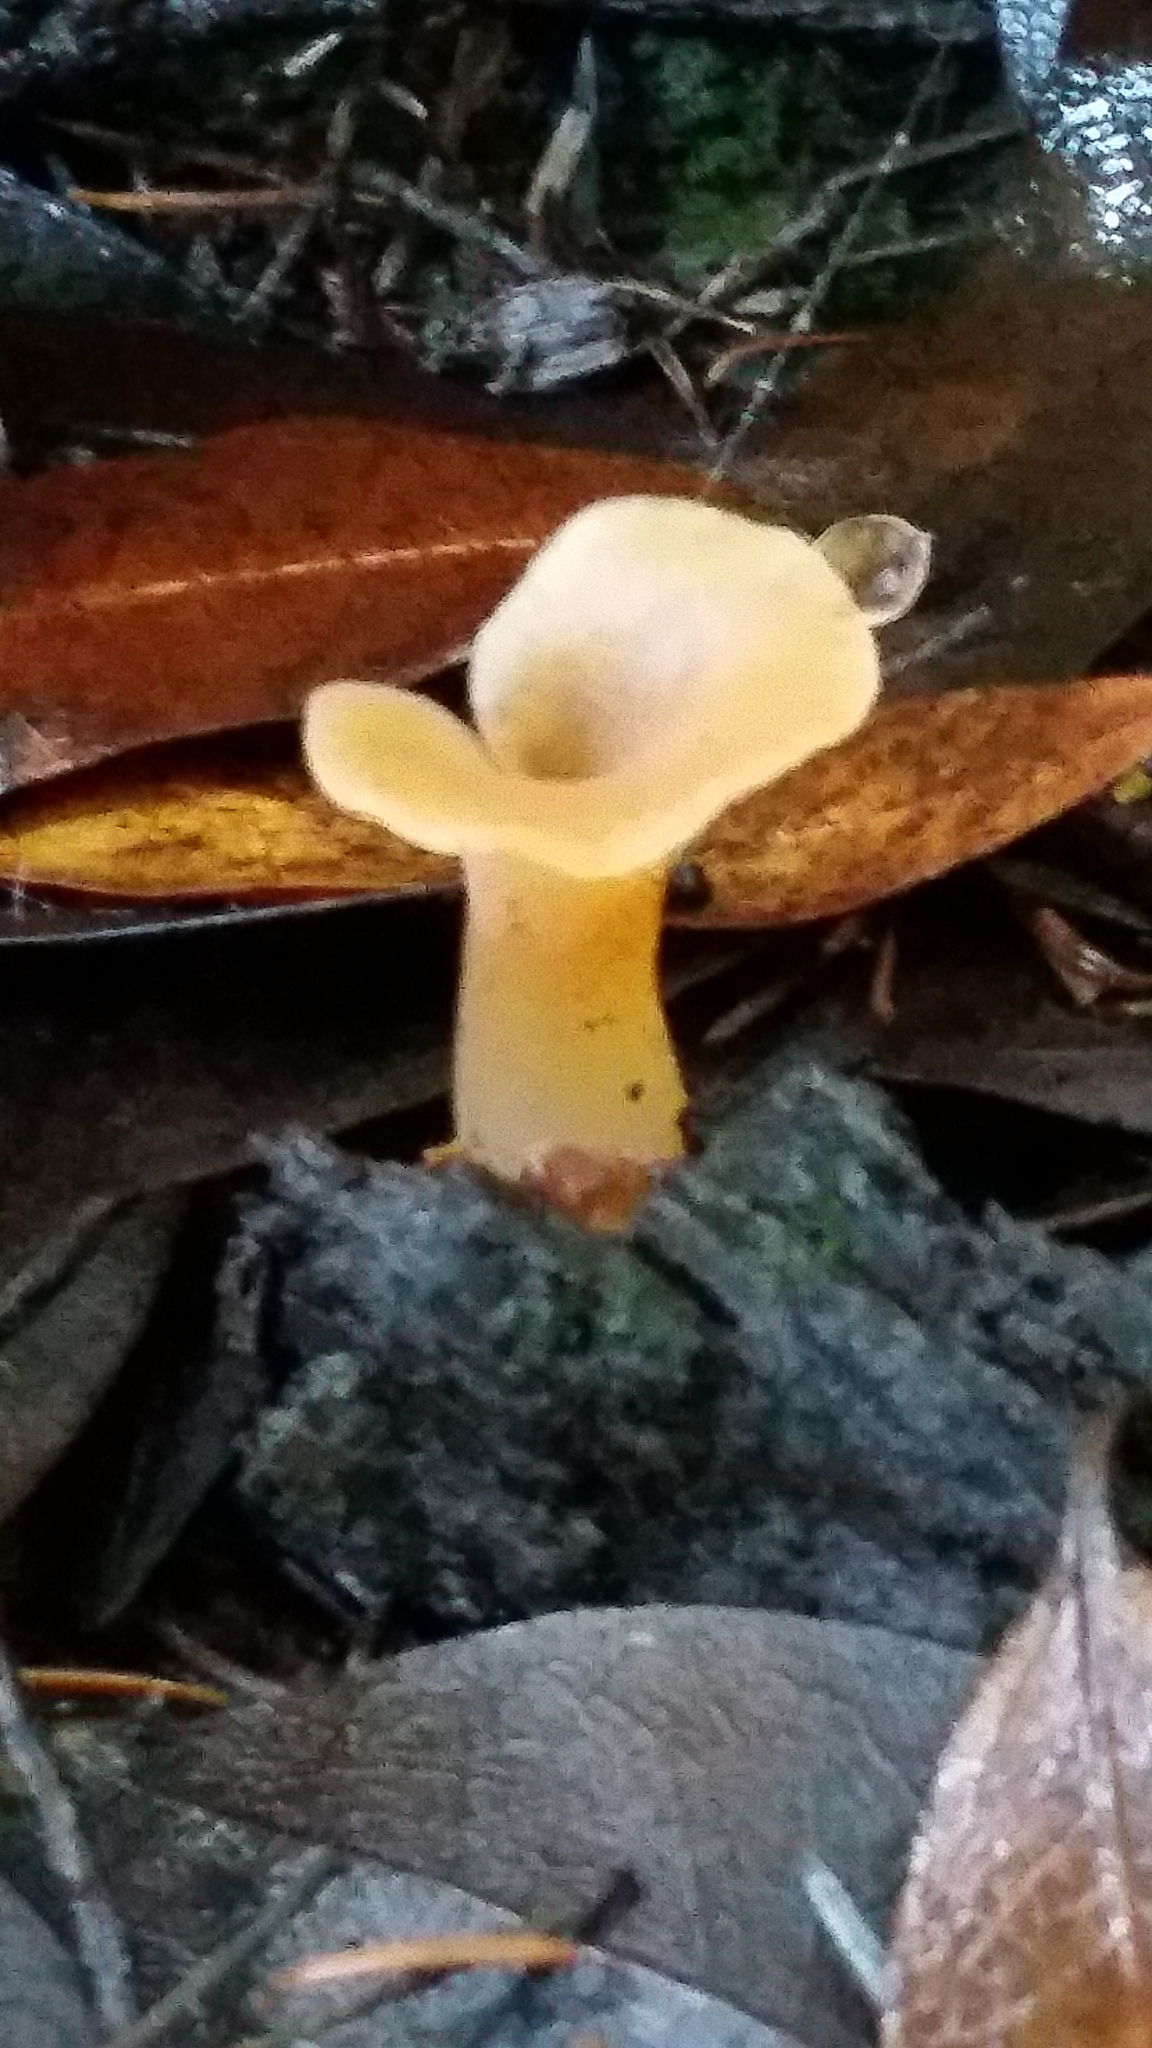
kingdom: Fungi
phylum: Basidiomycota
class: Agaricomycetes
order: Auriculariales
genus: Guepinia
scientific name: Guepinia helvelloides
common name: Salmon salad
